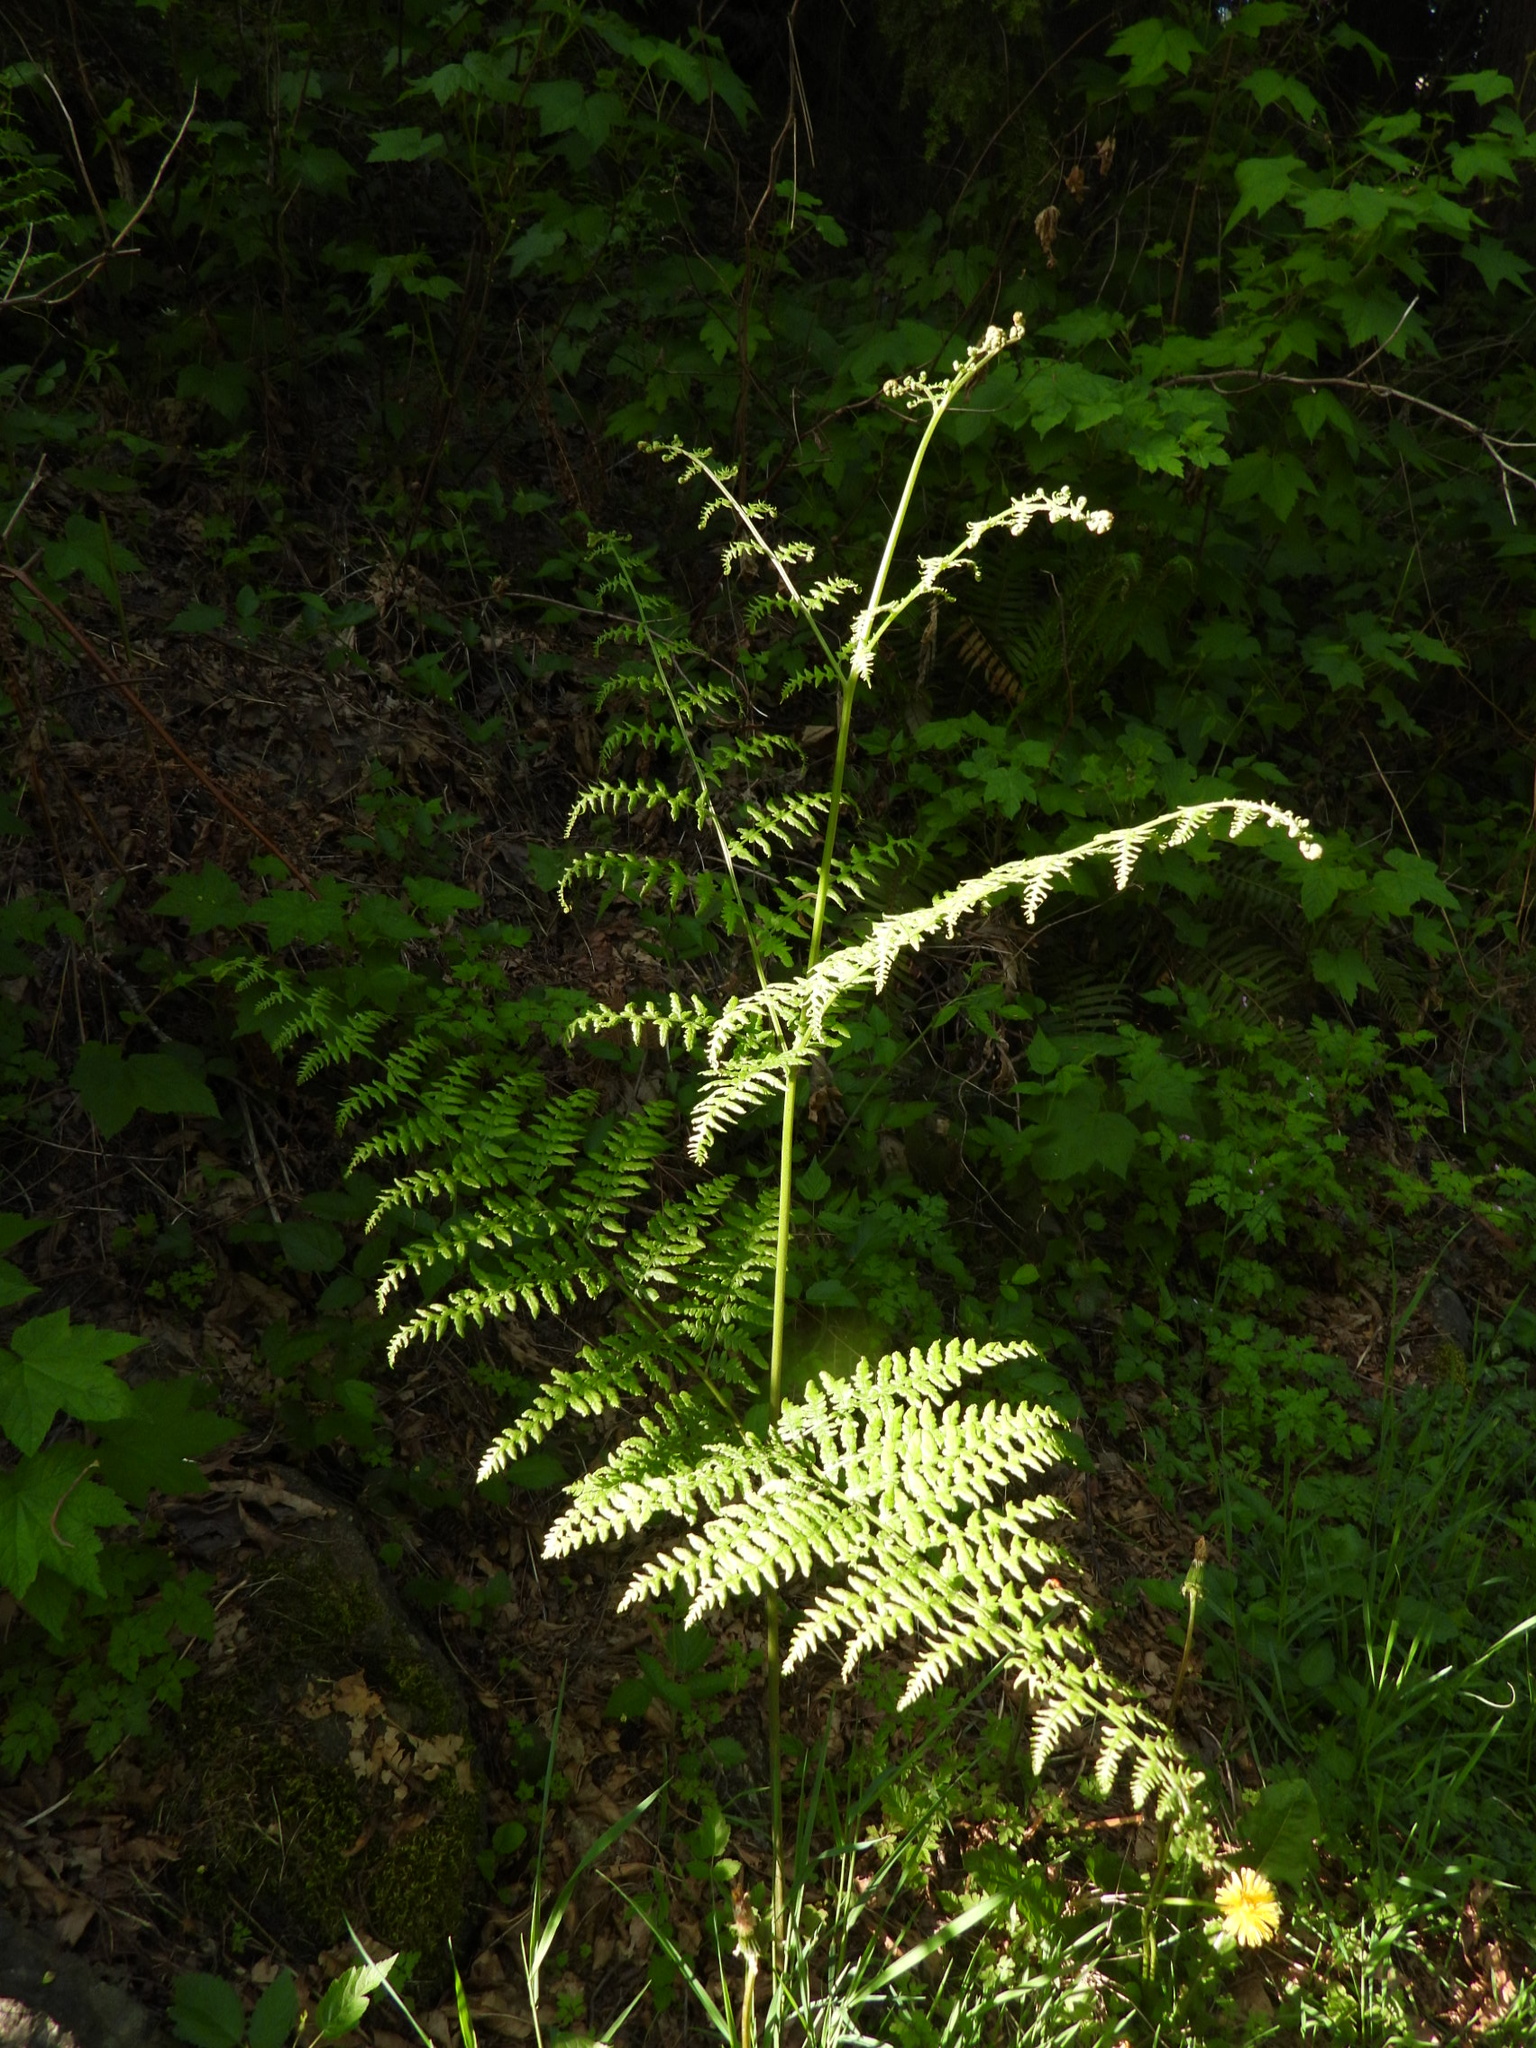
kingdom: Plantae
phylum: Tracheophyta
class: Polypodiopsida
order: Polypodiales
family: Dennstaedtiaceae
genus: Pteridium
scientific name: Pteridium aquilinum
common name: Bracken
